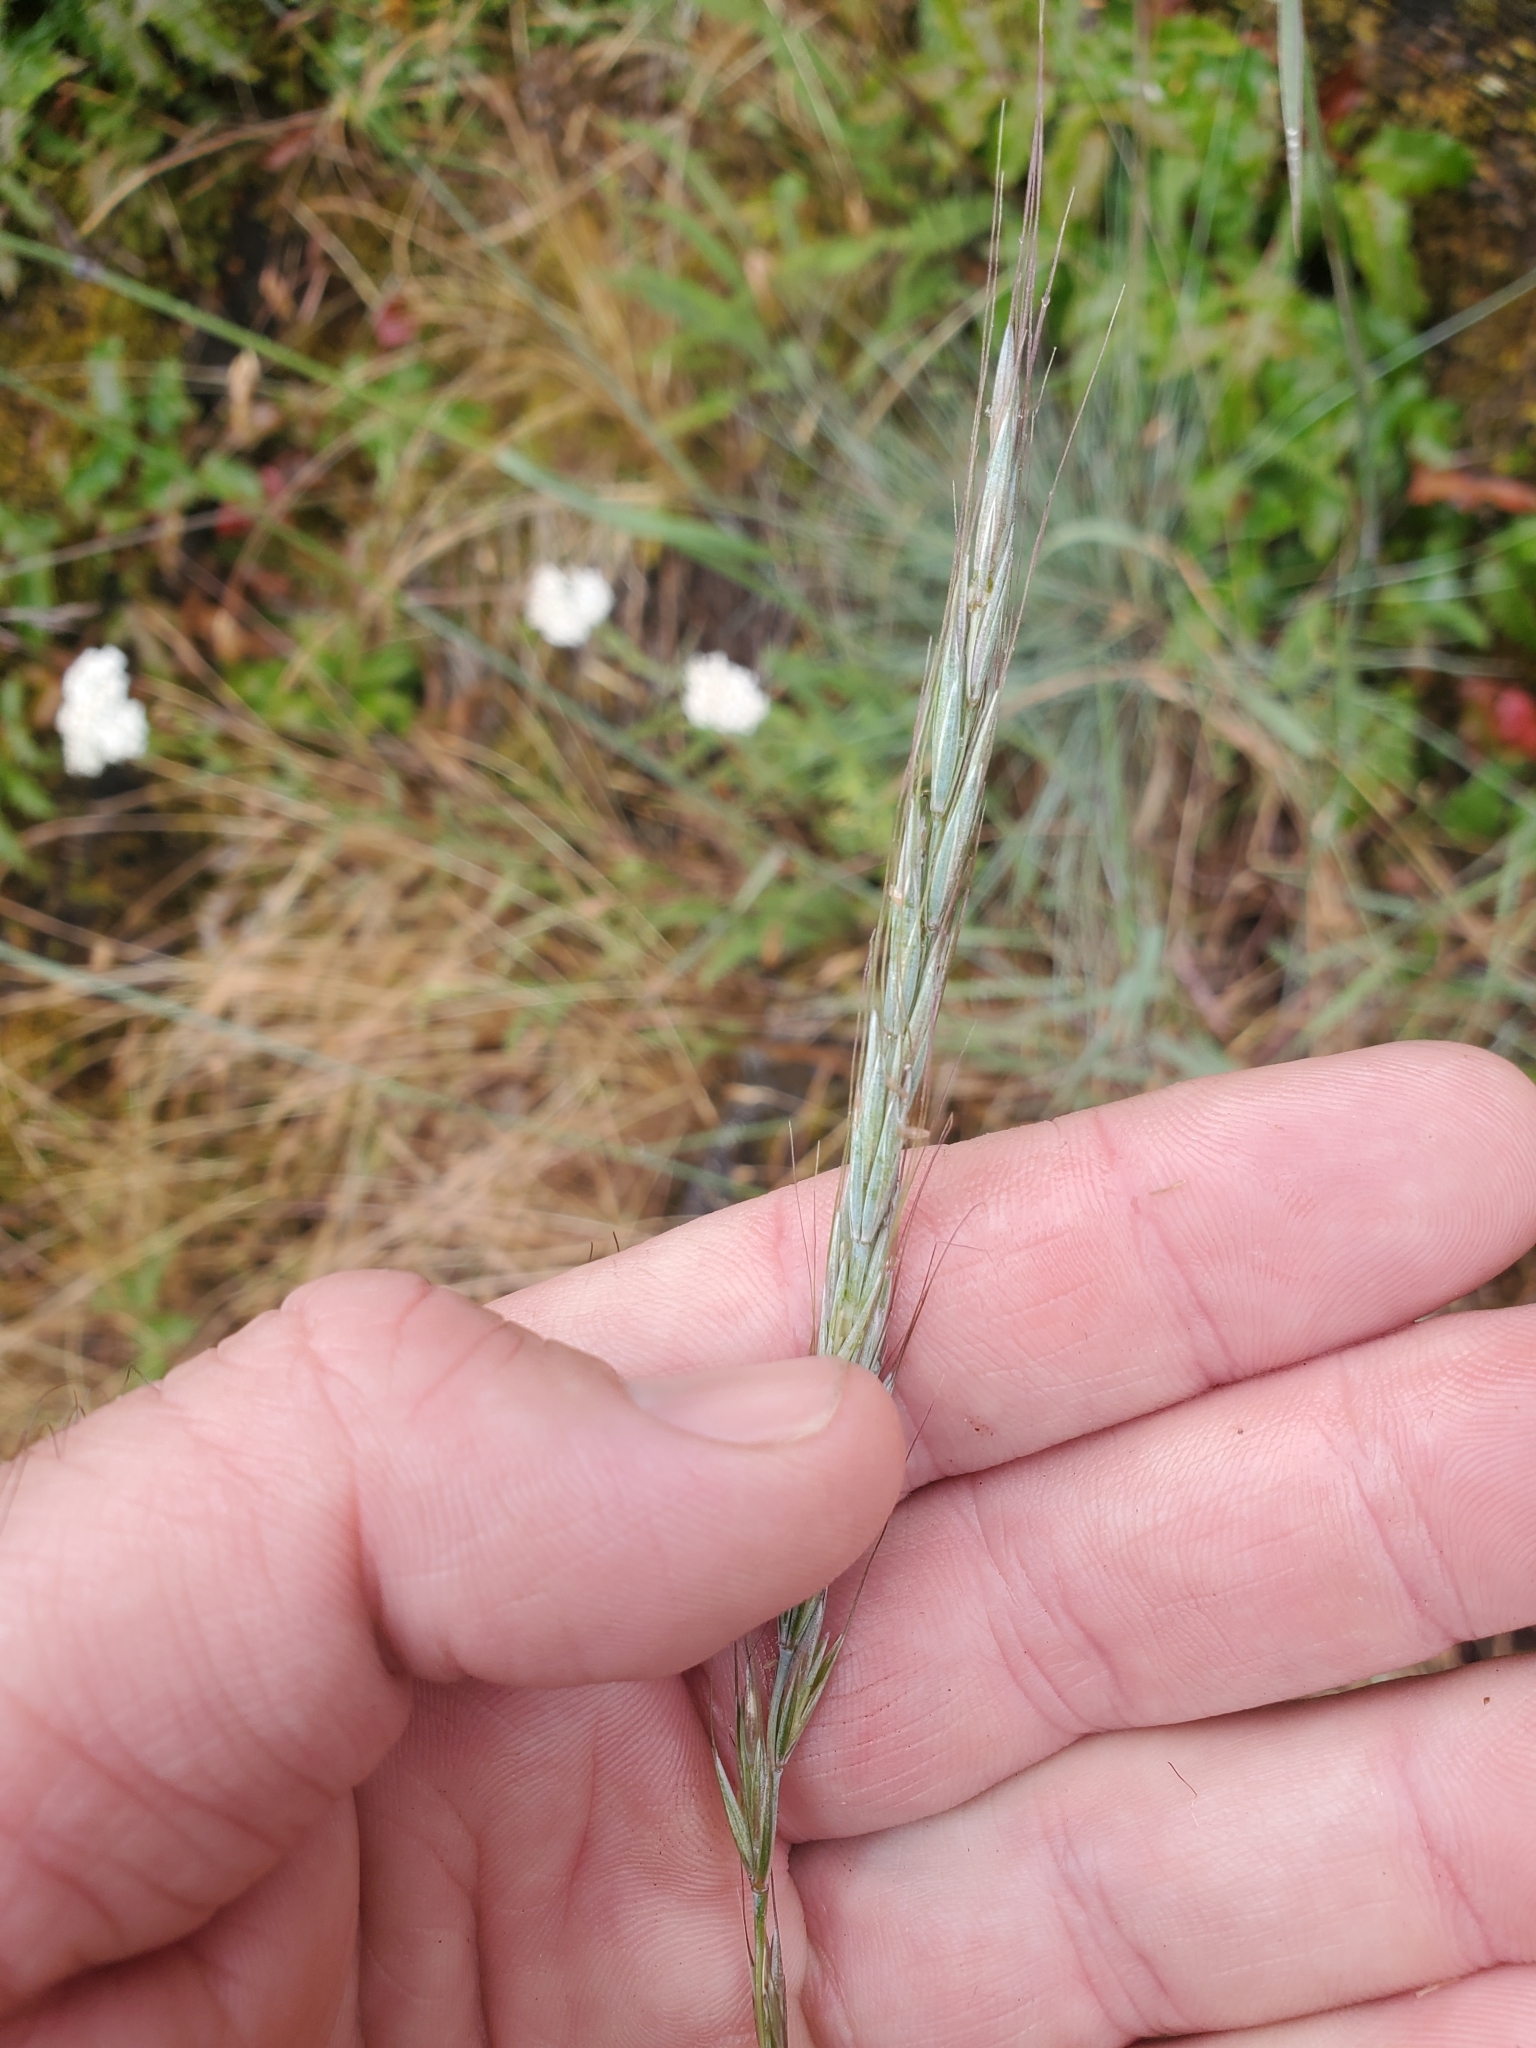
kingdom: Plantae
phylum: Tracheophyta
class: Liliopsida
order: Poales
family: Poaceae
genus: Elymus
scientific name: Elymus glaucus
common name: Blue wild rye
